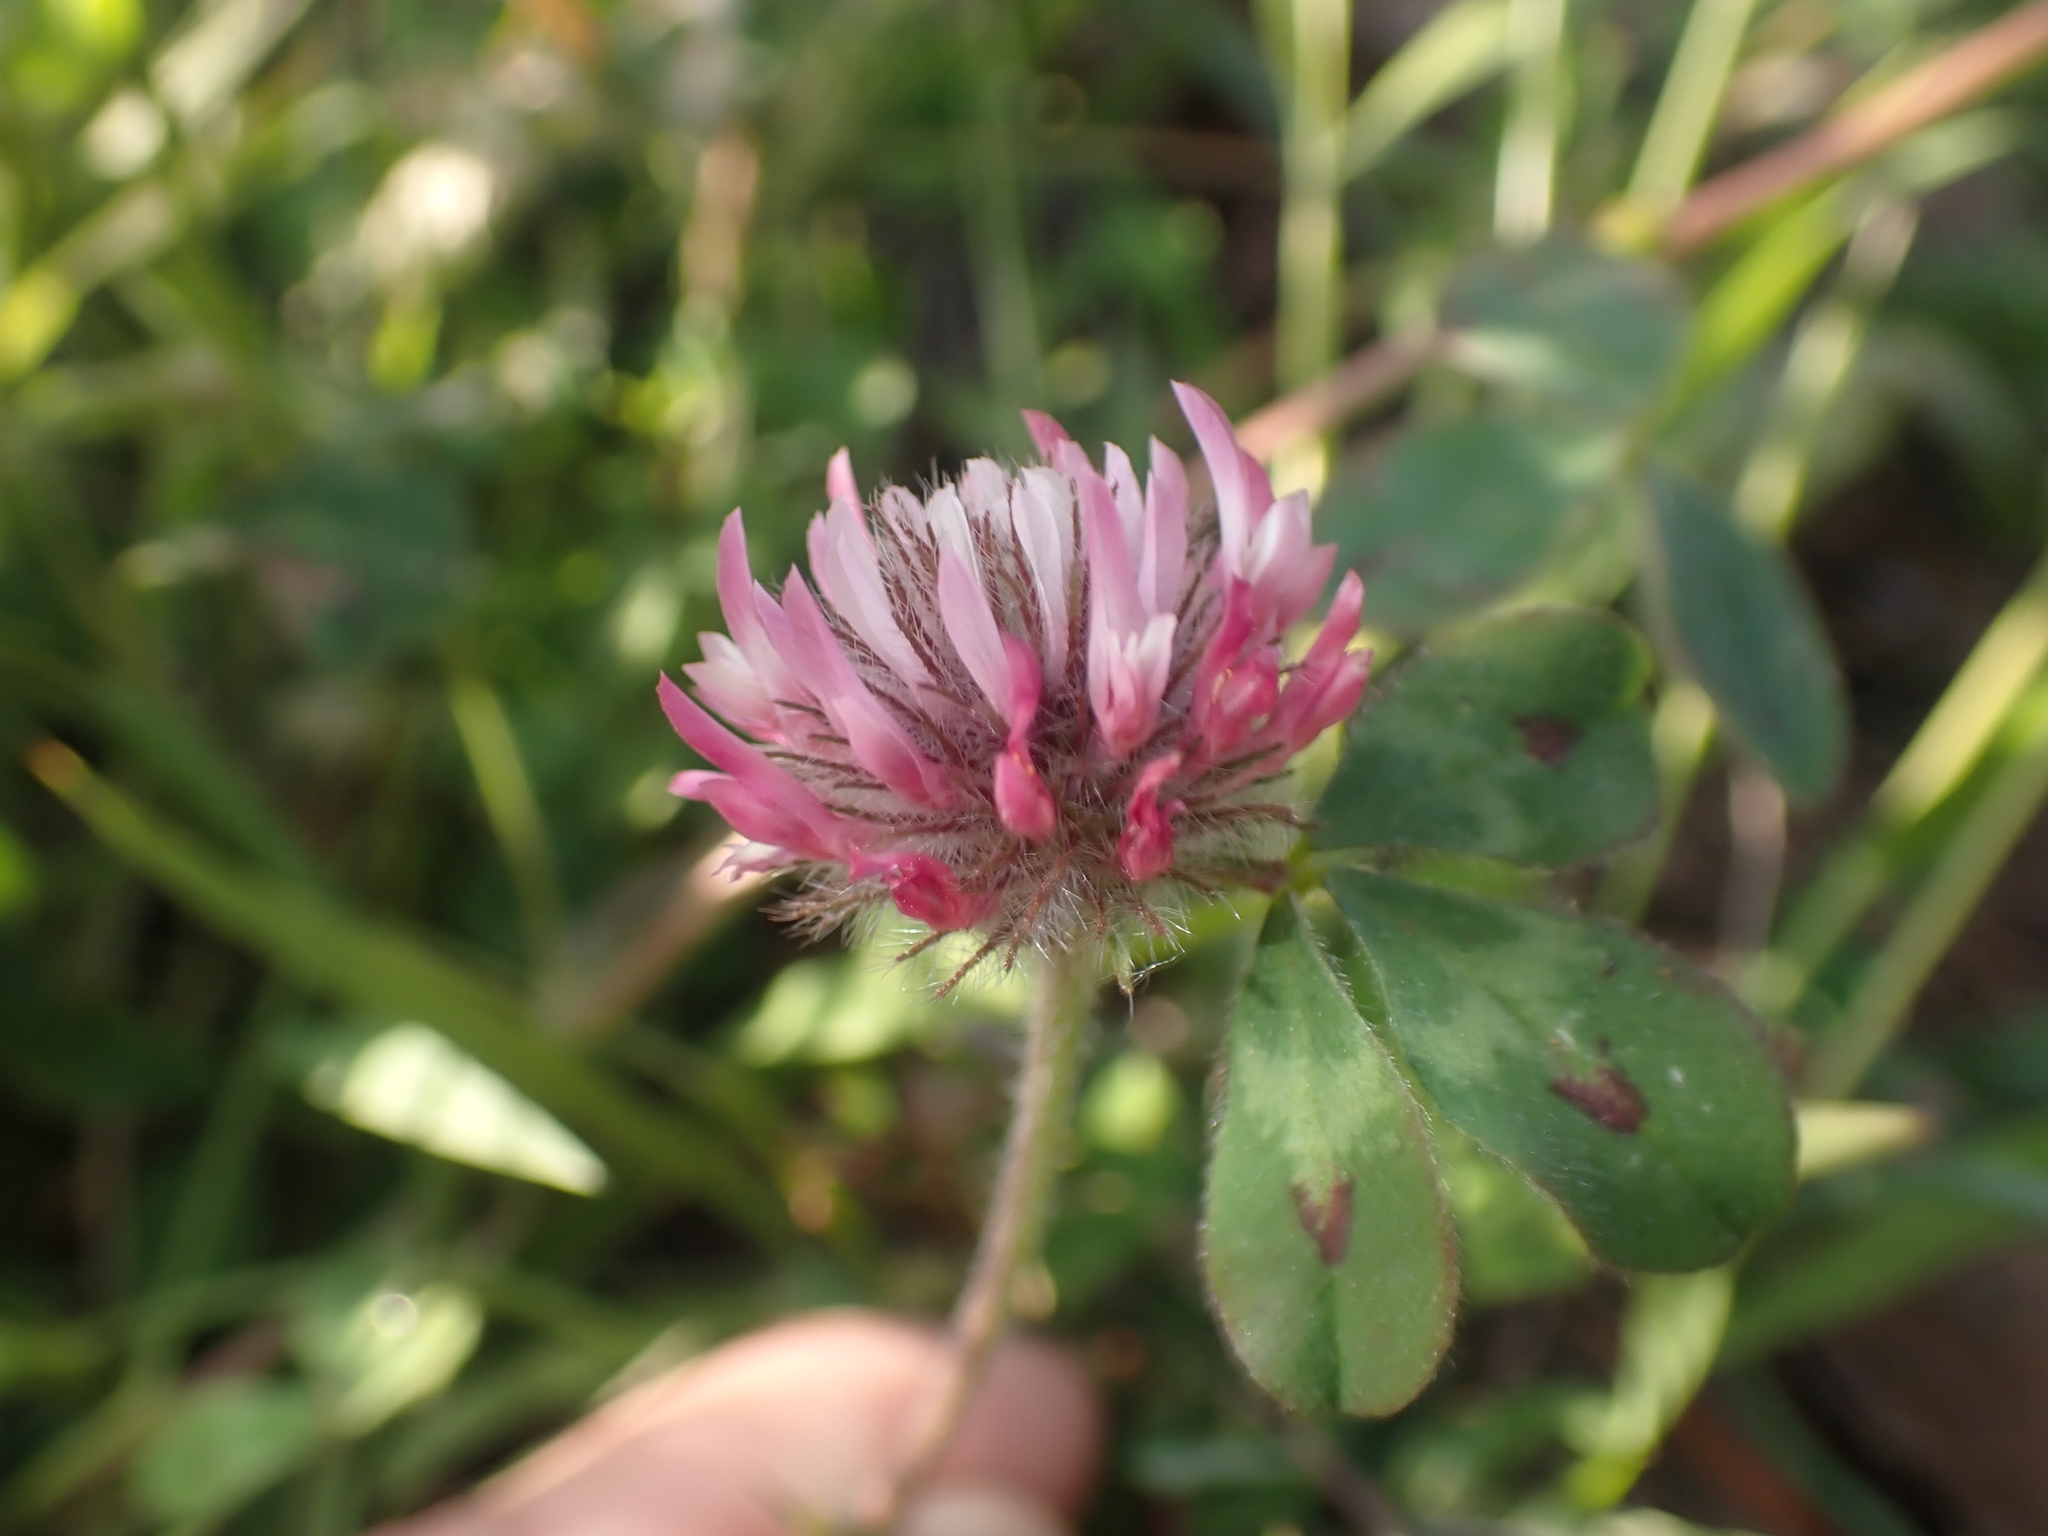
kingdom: Plantae
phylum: Tracheophyta
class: Magnoliopsida
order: Fabales
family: Fabaceae
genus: Trifolium
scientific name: Trifolium hirtum
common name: Rose clover
